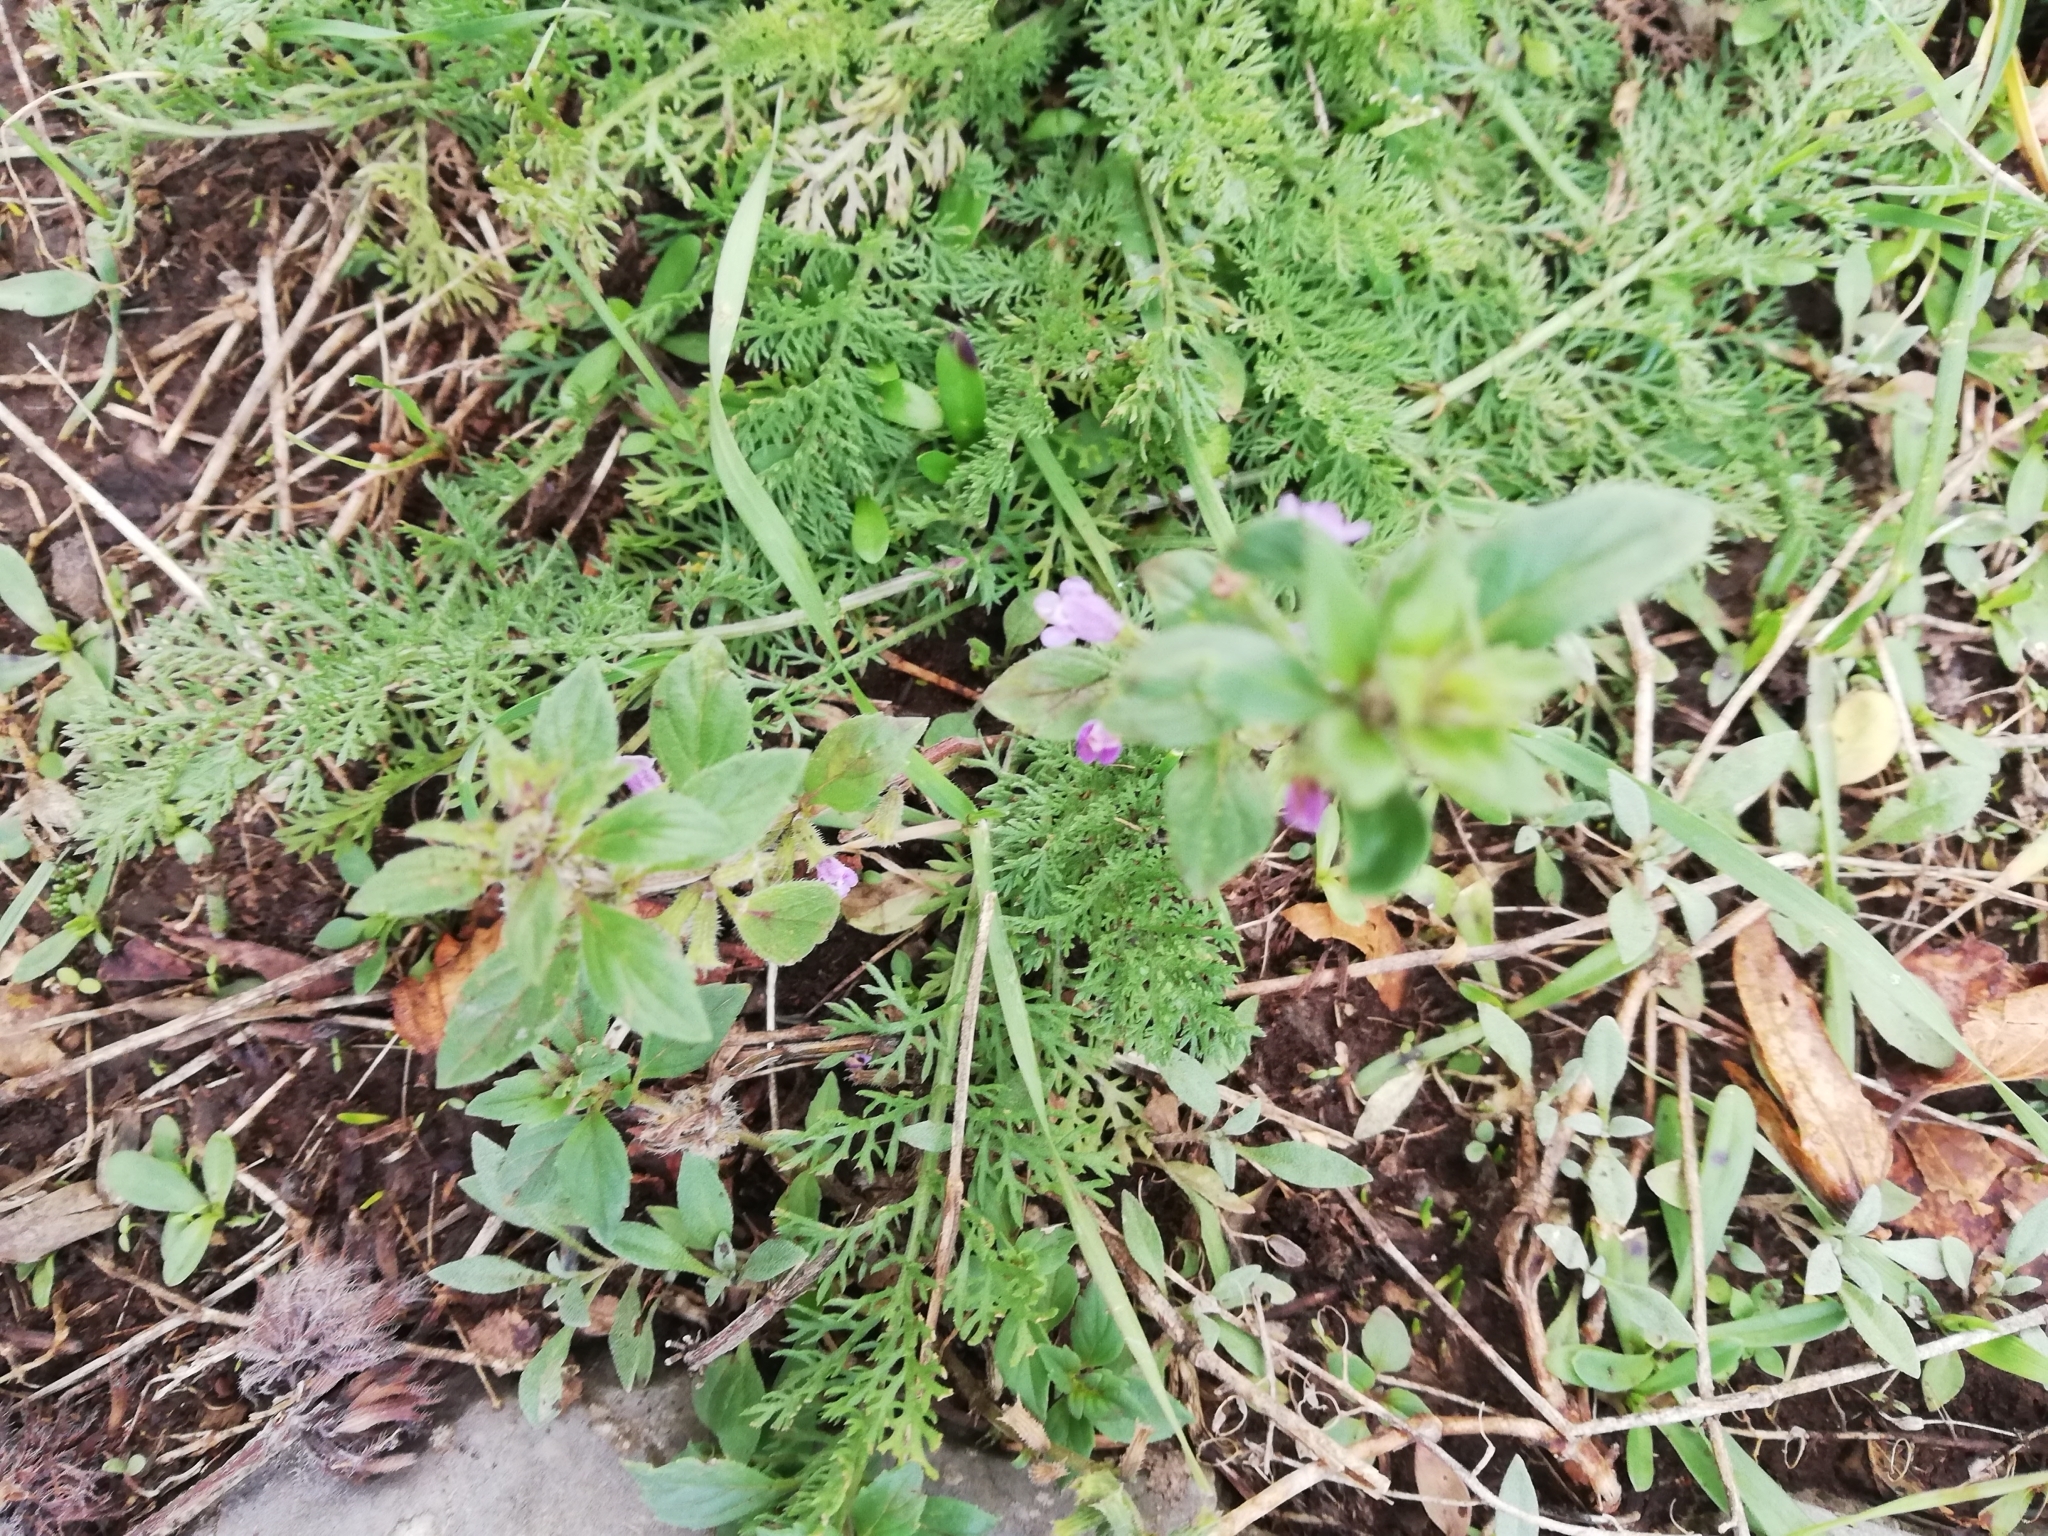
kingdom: Plantae
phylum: Tracheophyta
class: Magnoliopsida
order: Lamiales
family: Lamiaceae
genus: Clinopodium
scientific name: Clinopodium acinos
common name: Basil thyme
